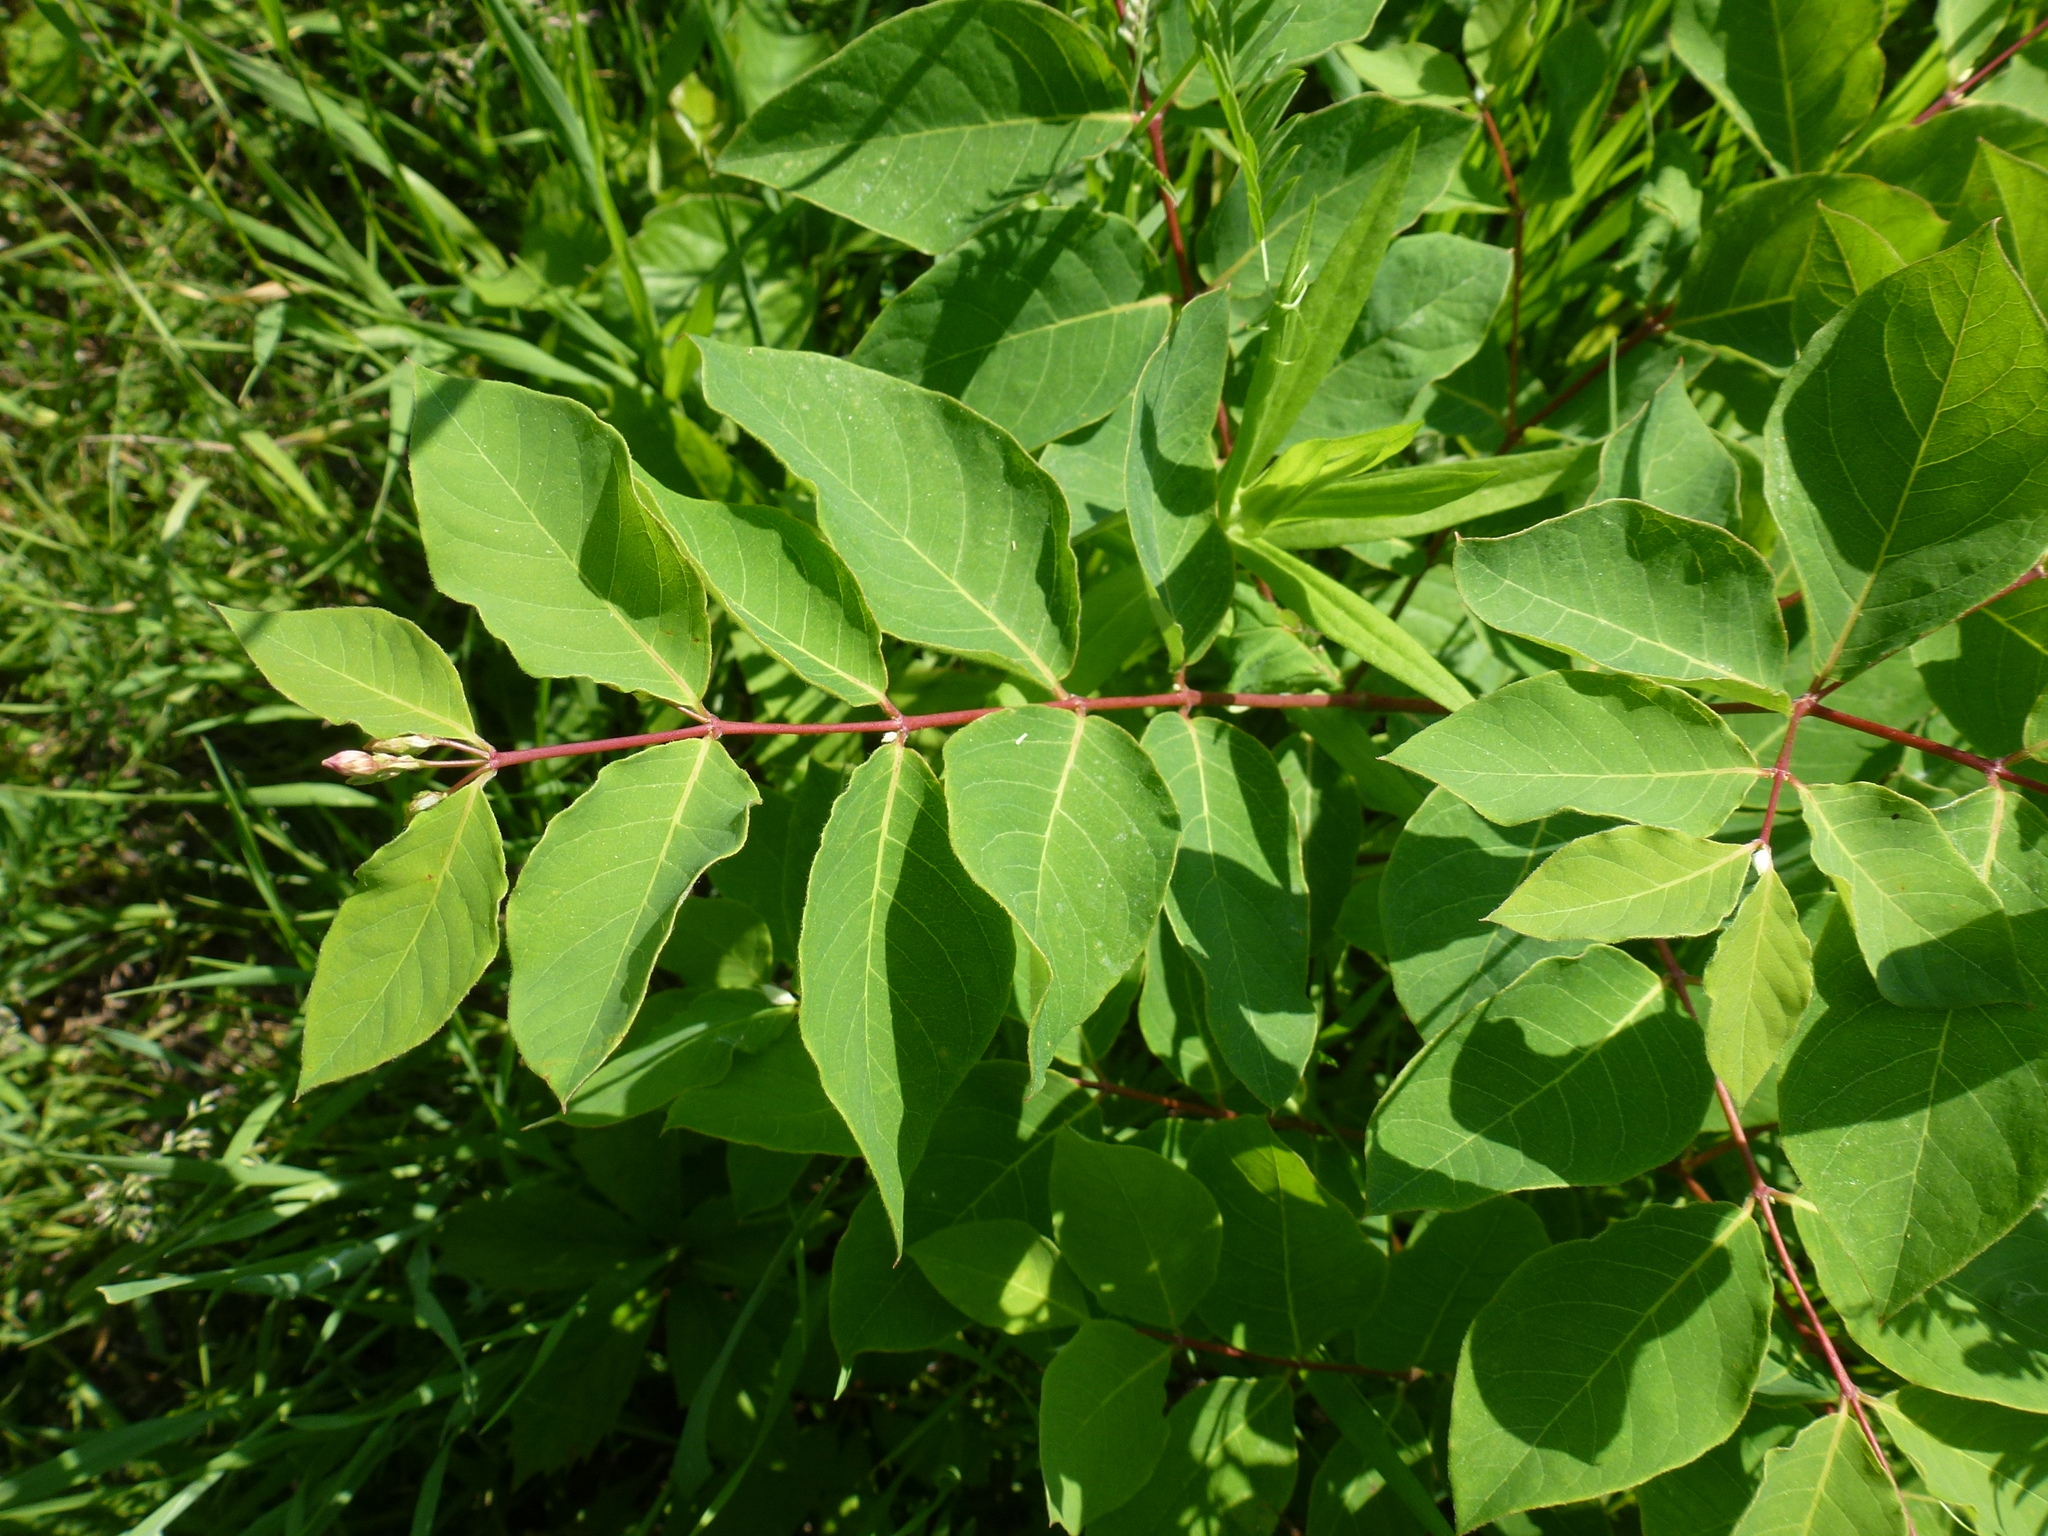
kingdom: Plantae
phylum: Tracheophyta
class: Magnoliopsida
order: Gentianales
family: Apocynaceae
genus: Apocynum
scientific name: Apocynum androsaemifolium
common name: Spreading dogbane
